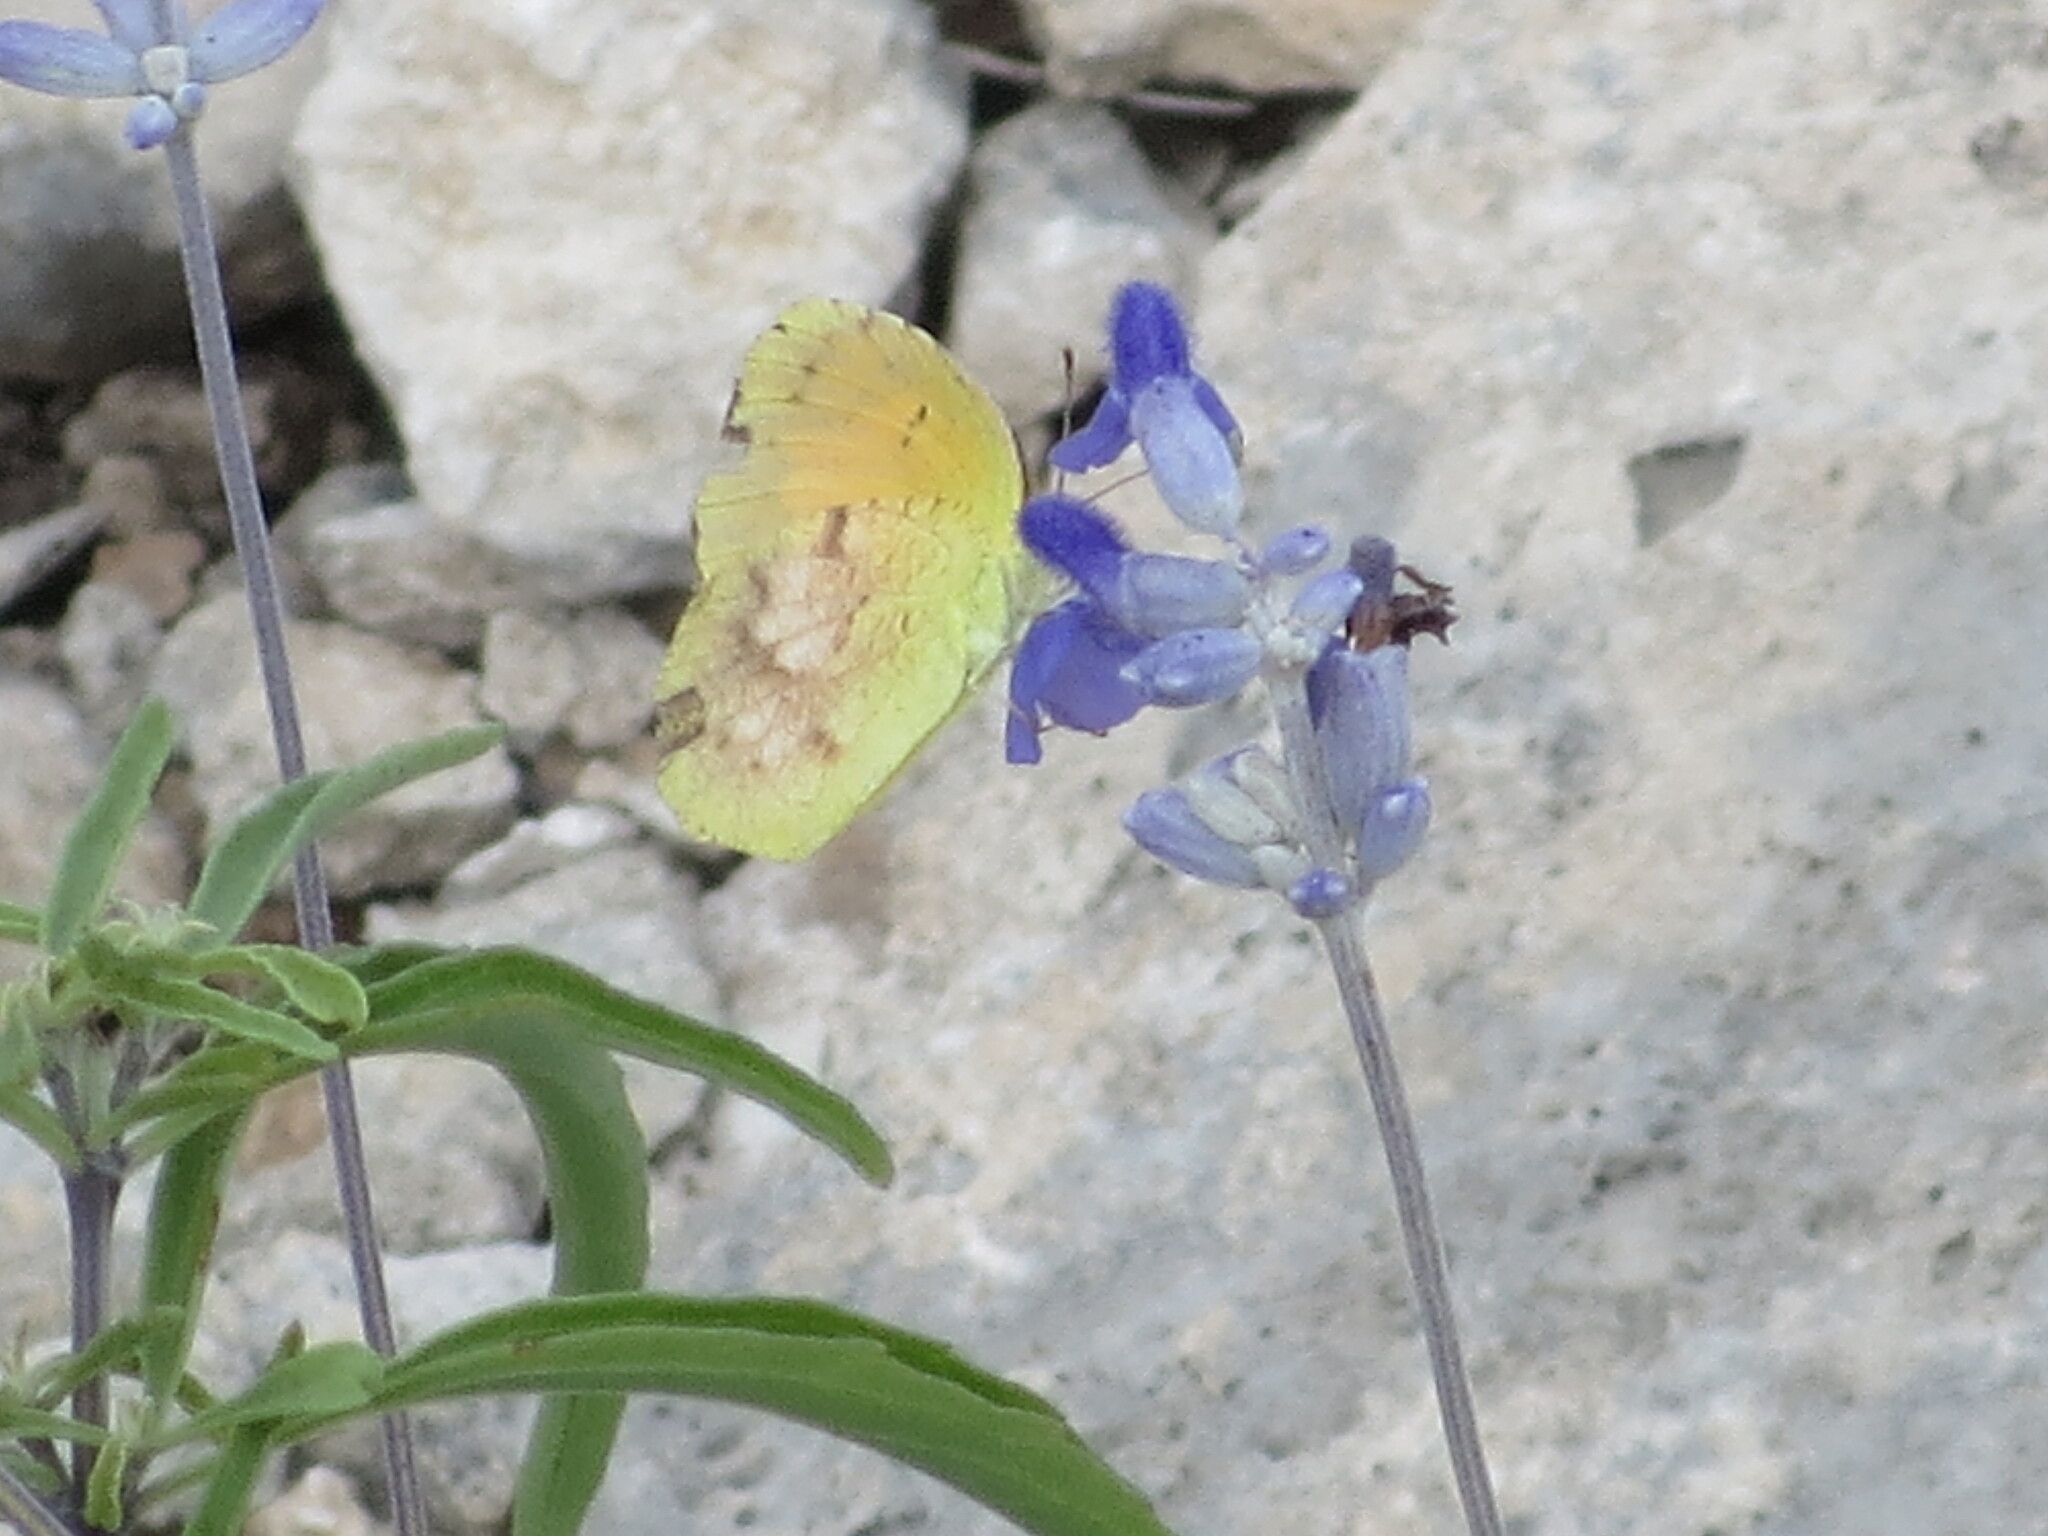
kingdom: Animalia
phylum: Arthropoda
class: Insecta
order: Lepidoptera
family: Pieridae
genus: Abaeis
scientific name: Abaeis nicippe
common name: Sleepy orange
